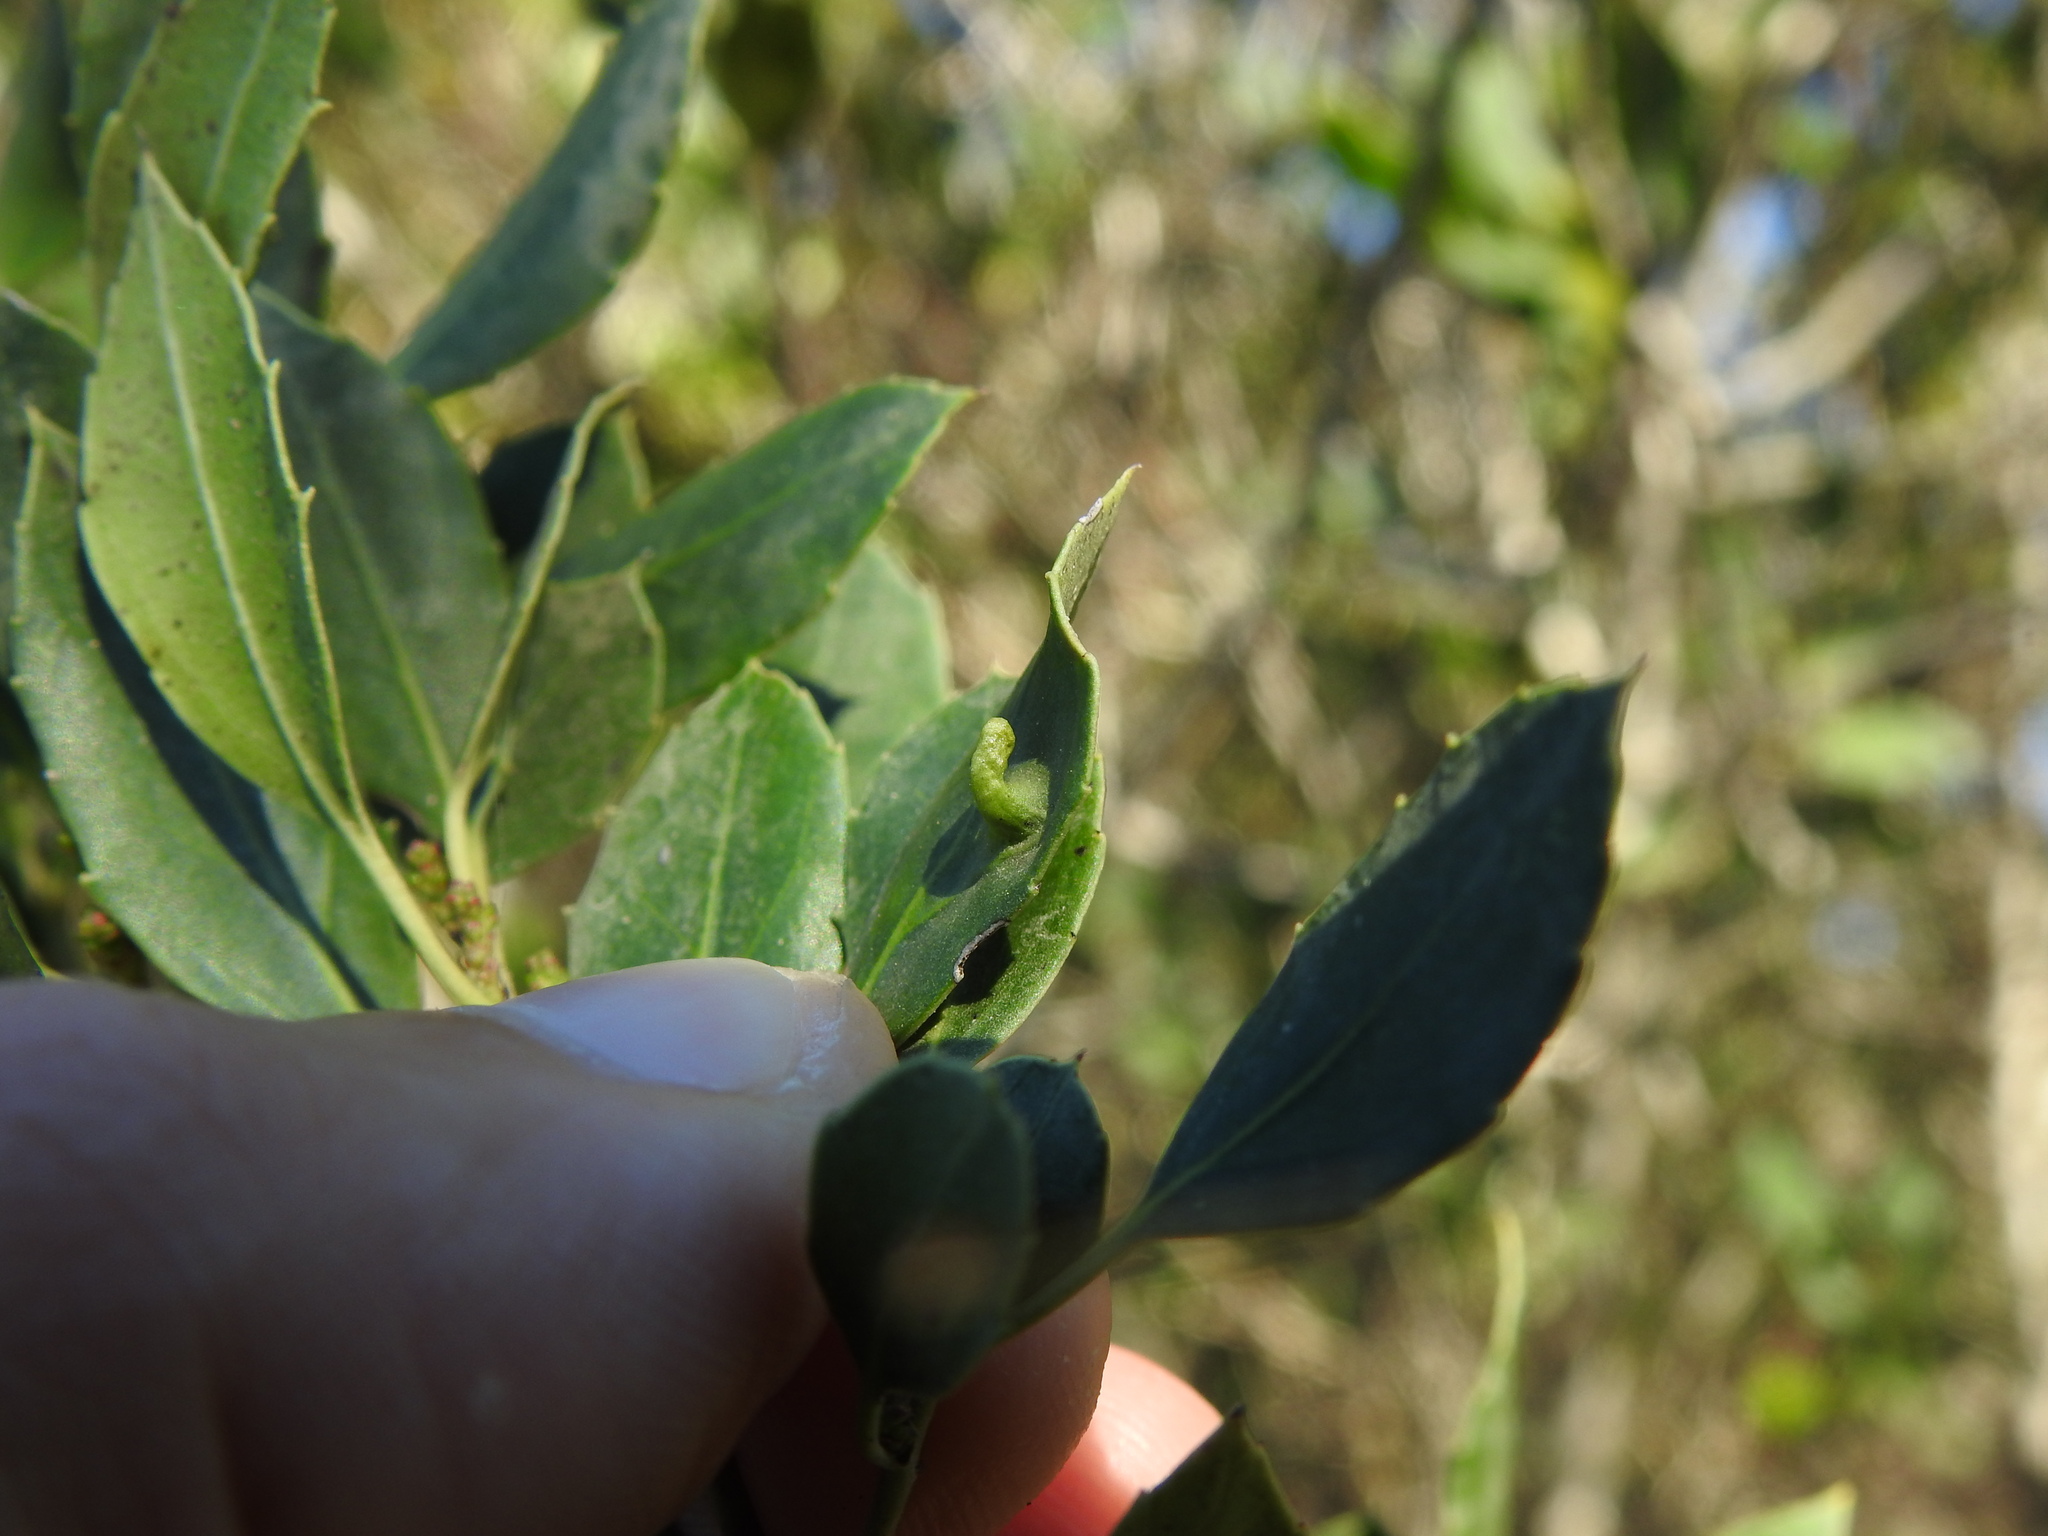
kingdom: Animalia
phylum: Arthropoda
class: Insecta
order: Hemiptera
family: Triozidae
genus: Trioza
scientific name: Trioza kiefferi
